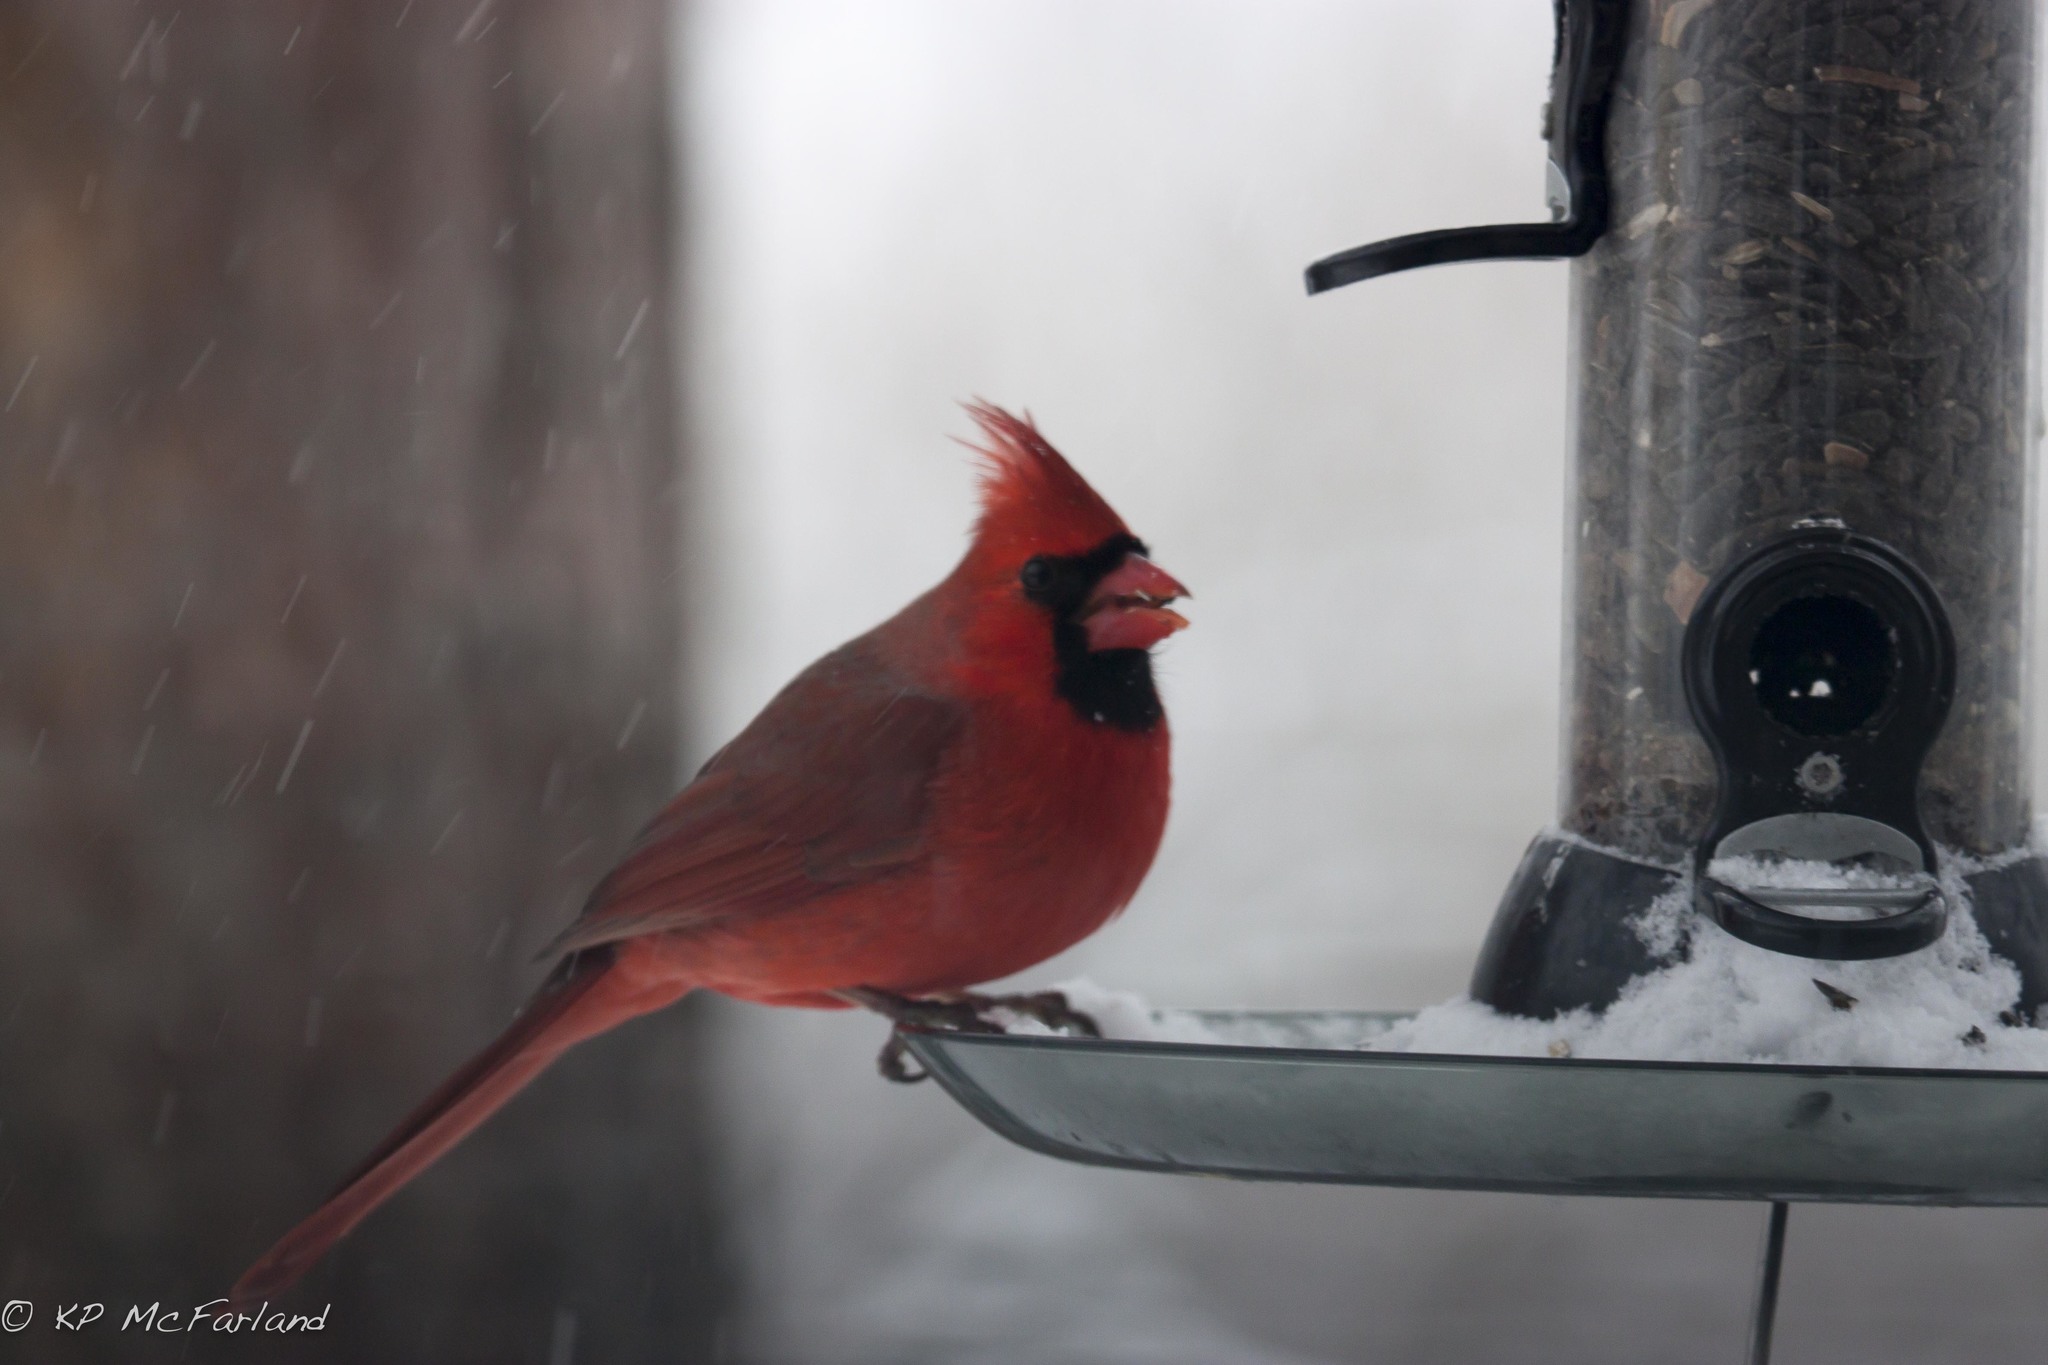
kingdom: Animalia
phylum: Chordata
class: Aves
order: Passeriformes
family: Cardinalidae
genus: Cardinalis
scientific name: Cardinalis cardinalis
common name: Northern cardinal
